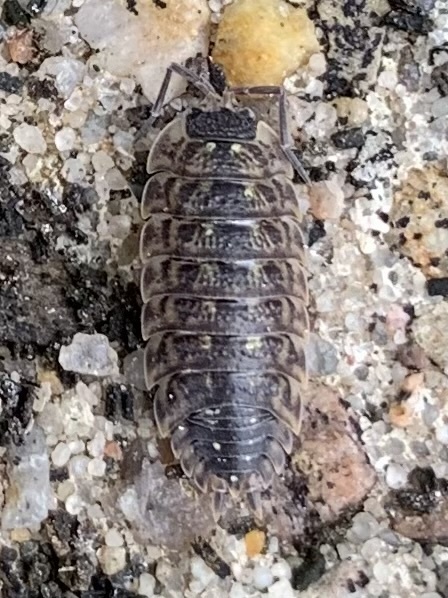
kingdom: Animalia
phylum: Arthropoda
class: Malacostraca
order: Isopoda
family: Porcellionidae
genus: Porcellio
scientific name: Porcellio spinicornis
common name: Painted woodlouse
